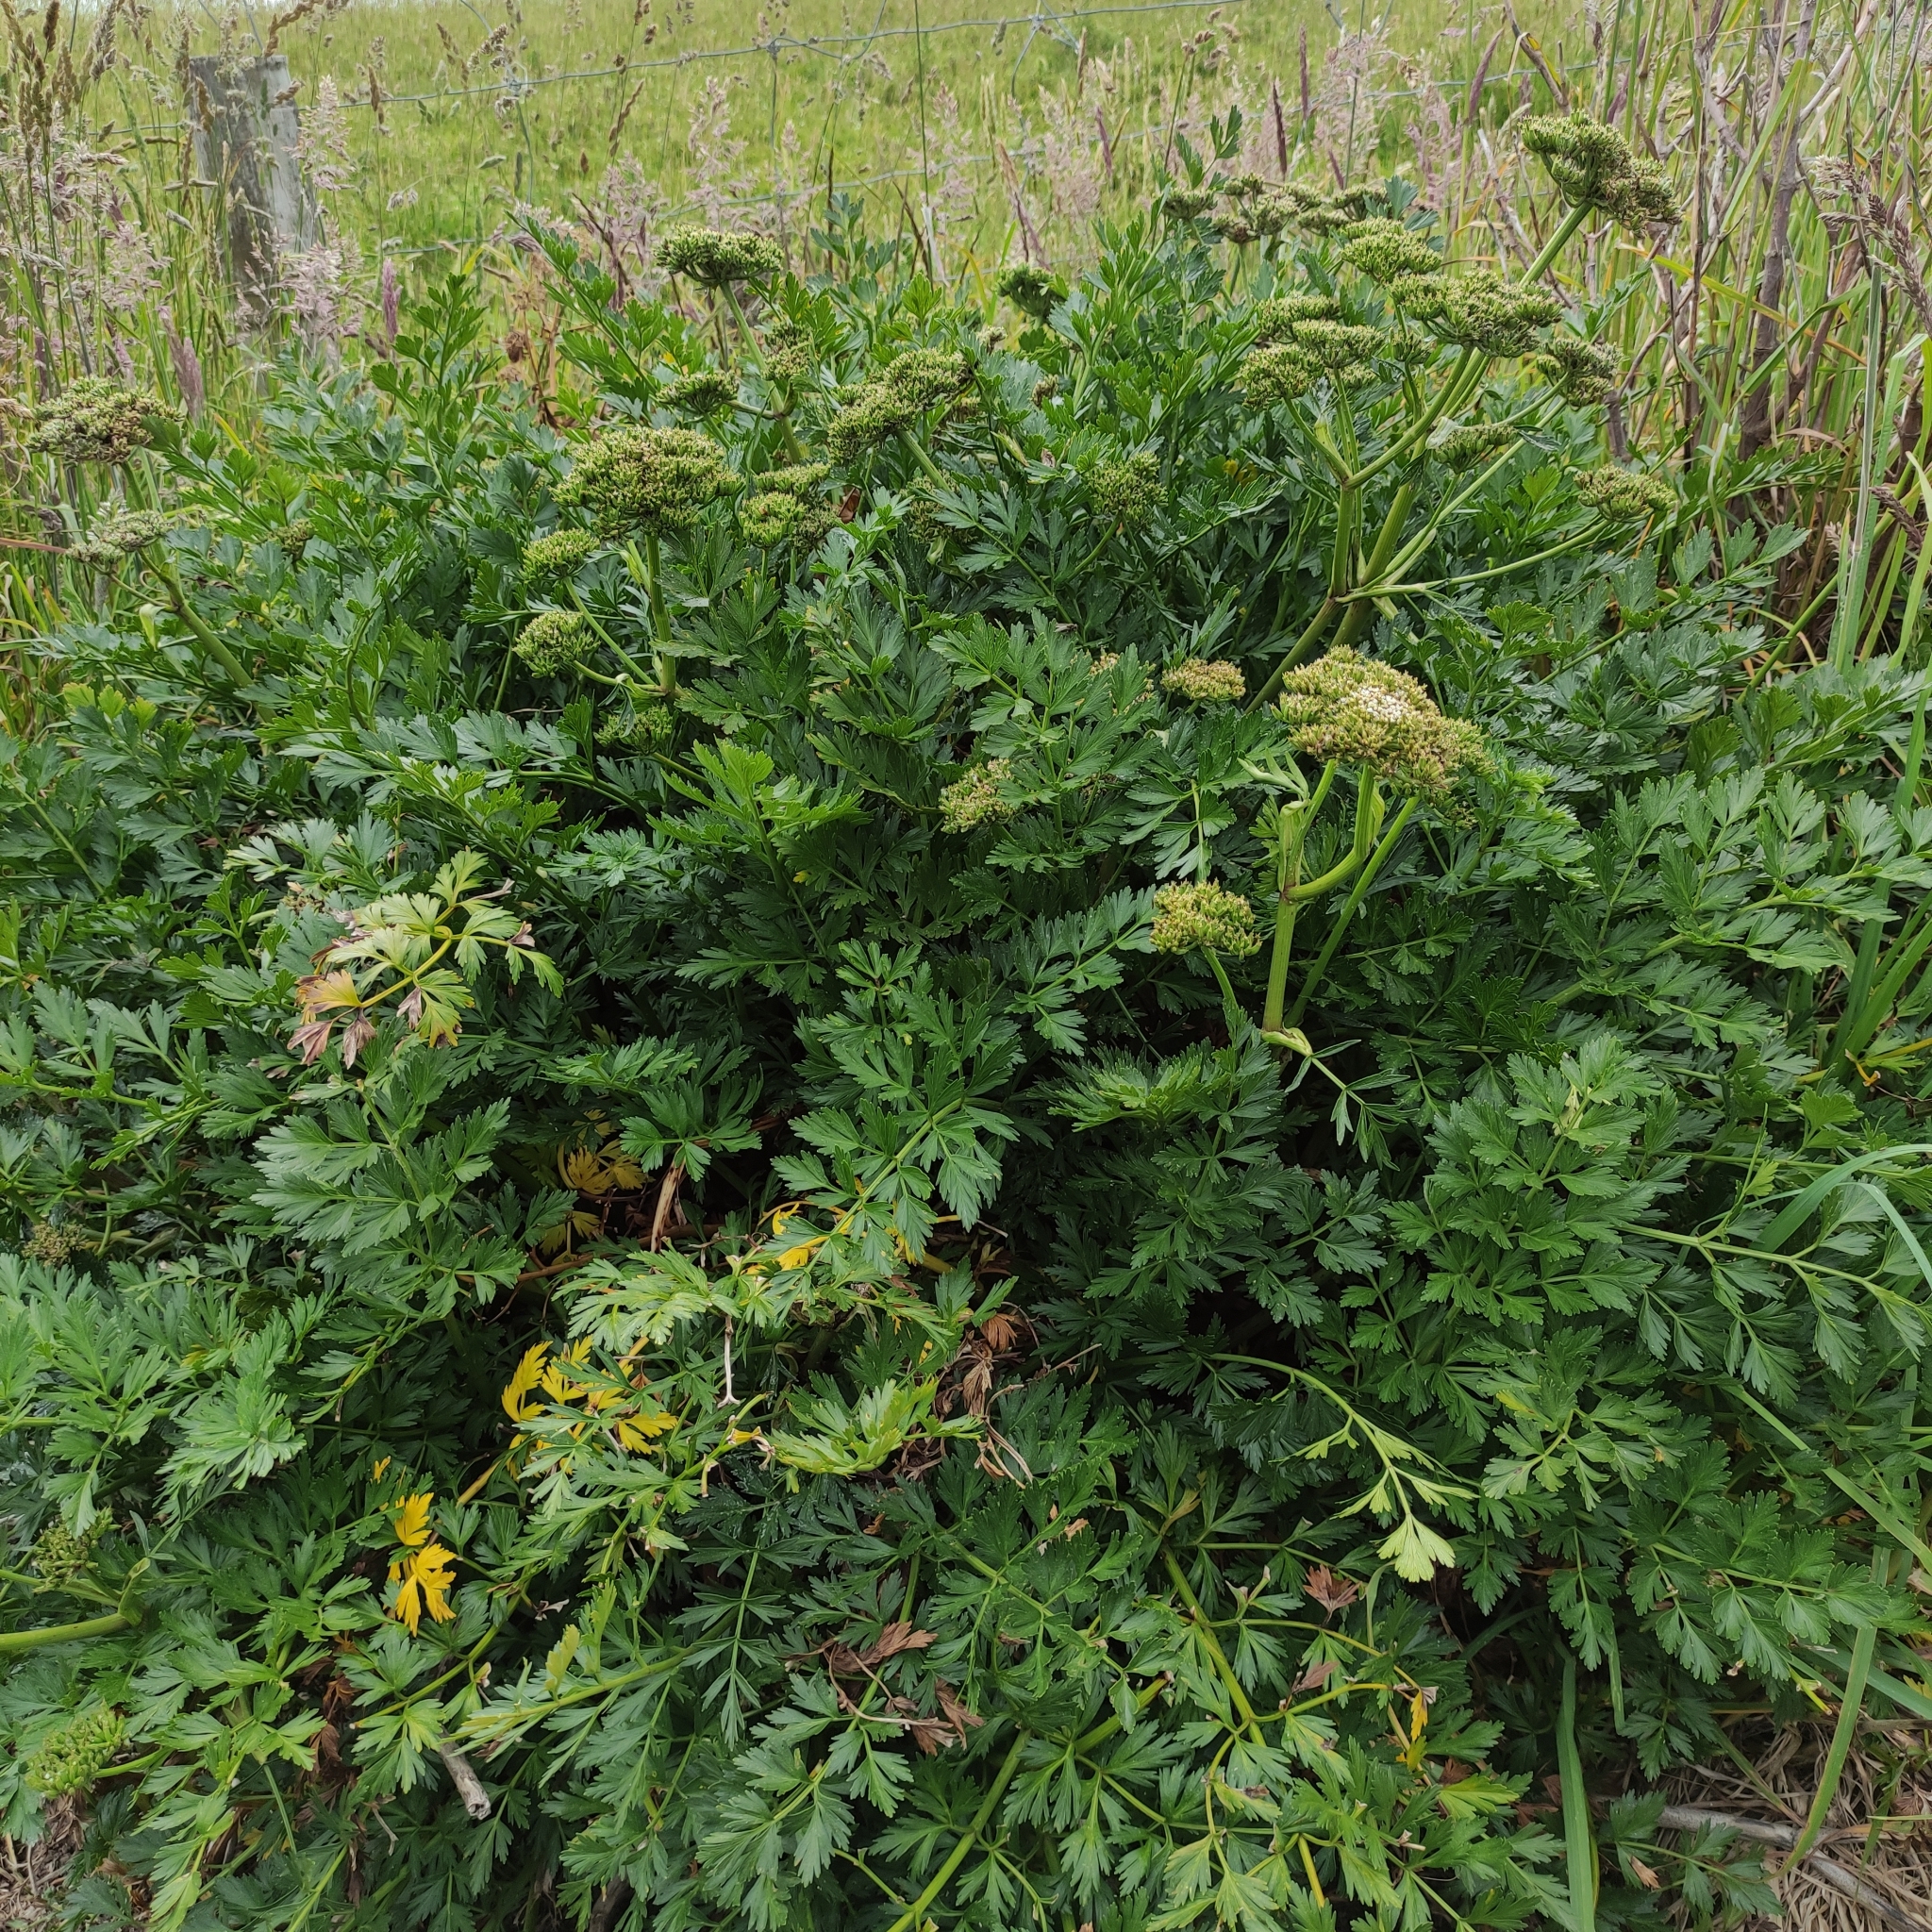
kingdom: Plantae
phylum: Tracheophyta
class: Magnoliopsida
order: Apiales
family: Apiaceae
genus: Anisotome
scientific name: Anisotome lyallii
